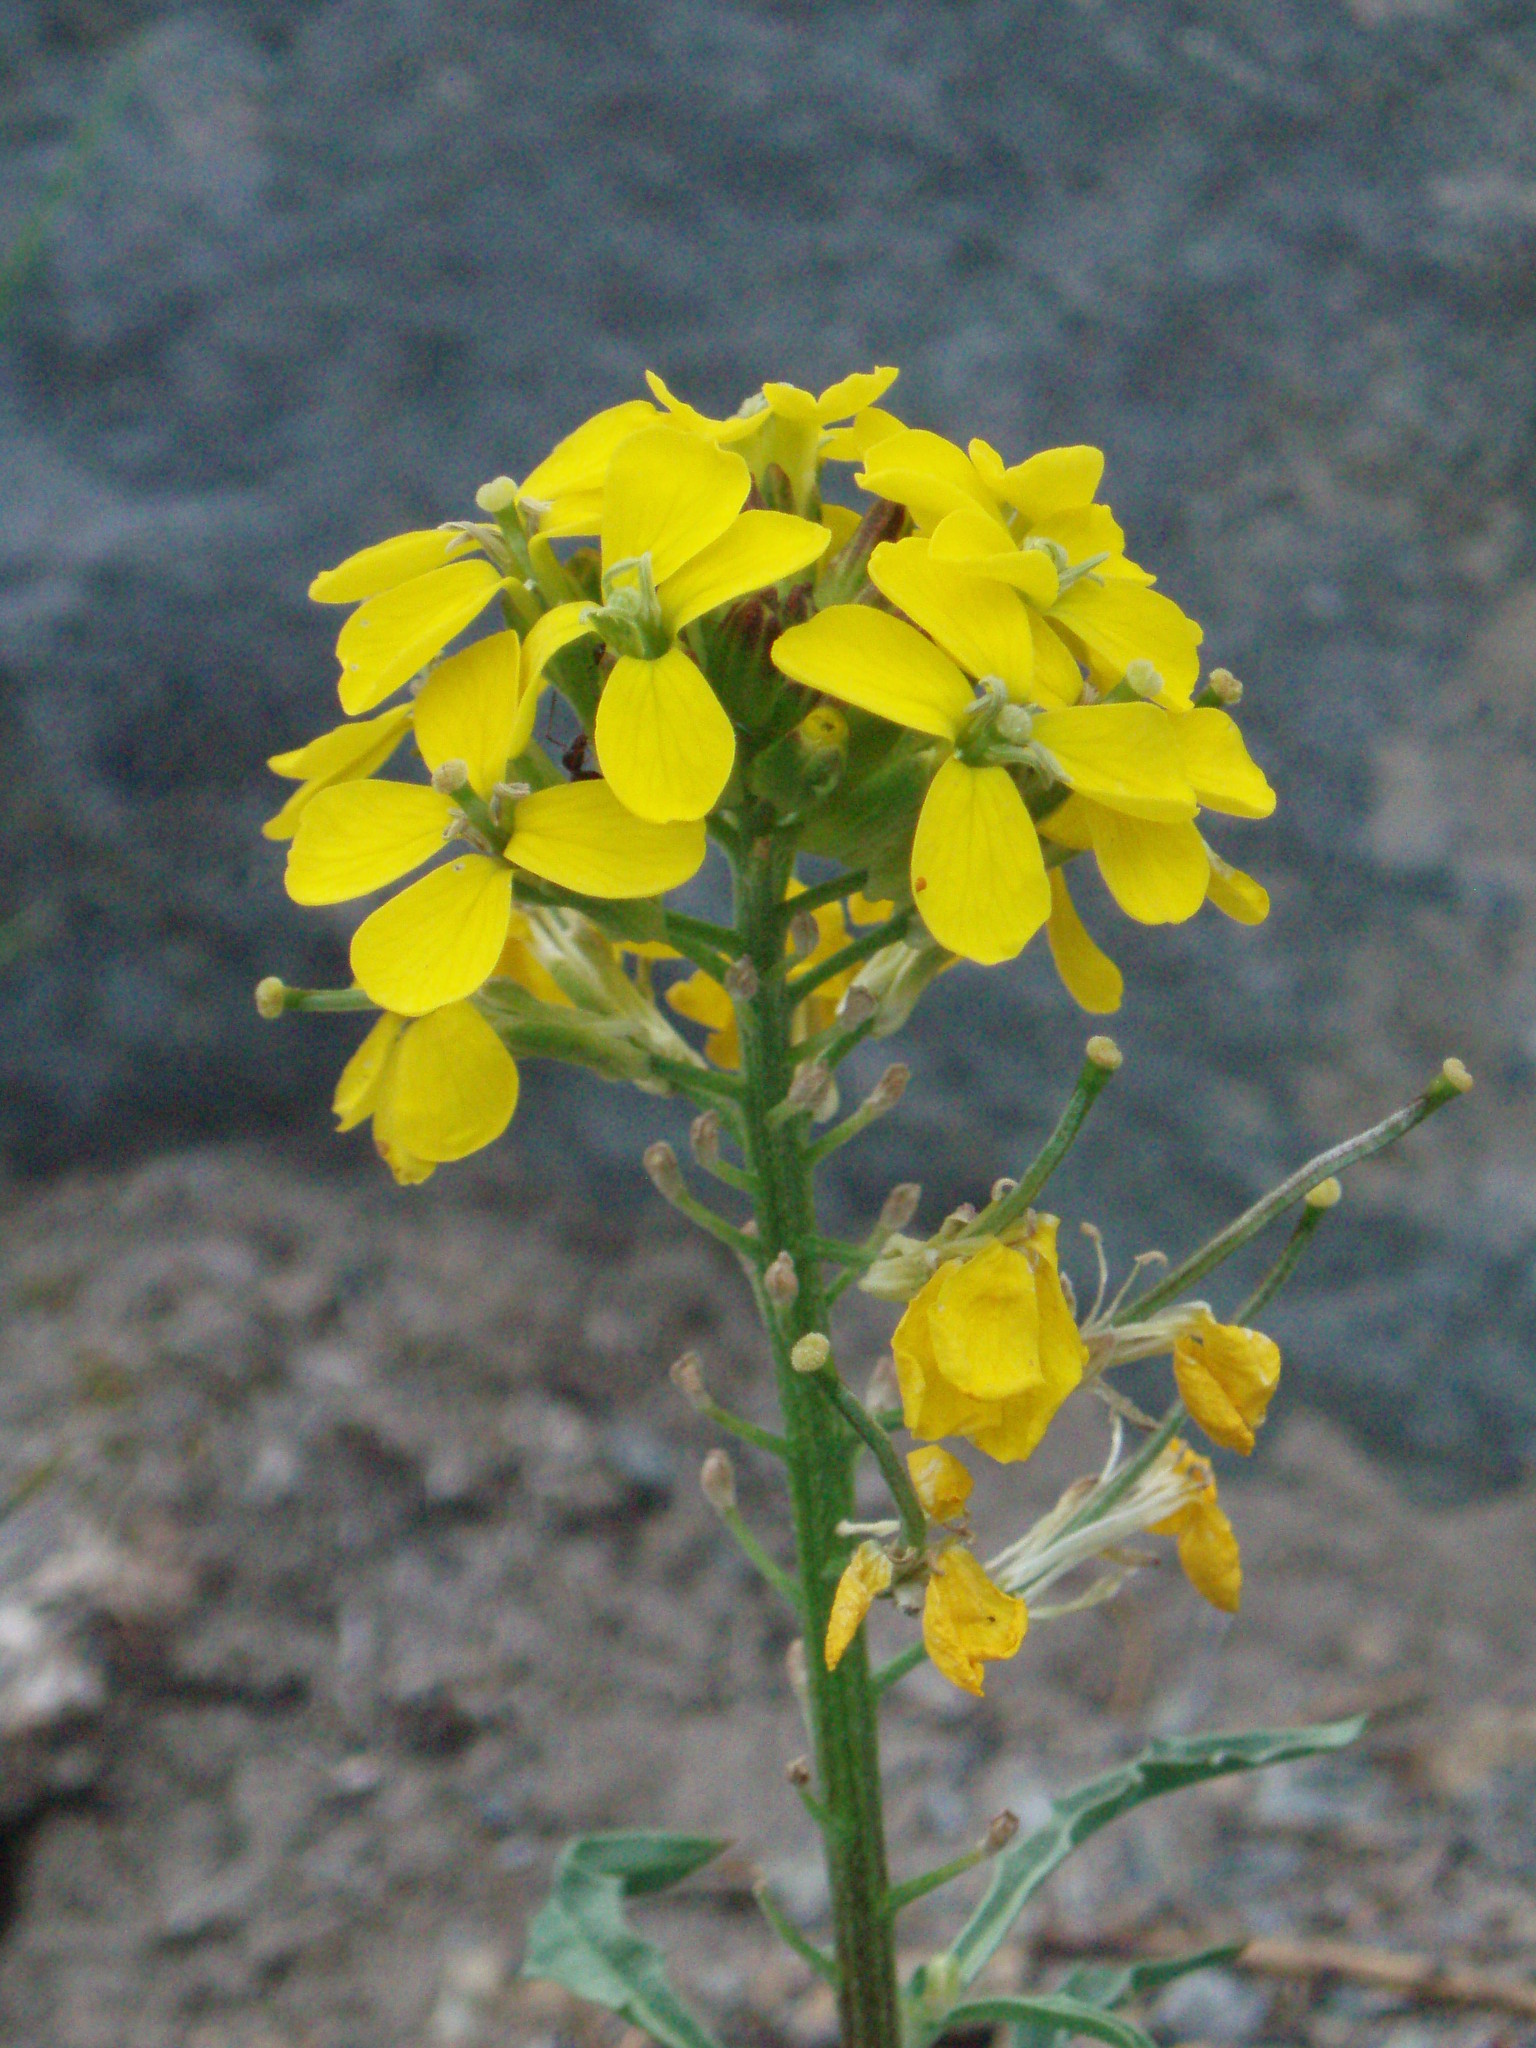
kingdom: Plantae
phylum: Tracheophyta
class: Magnoliopsida
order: Brassicales
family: Brassicaceae
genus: Erysimum
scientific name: Erysimum arenicola
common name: Cascade wallflower
